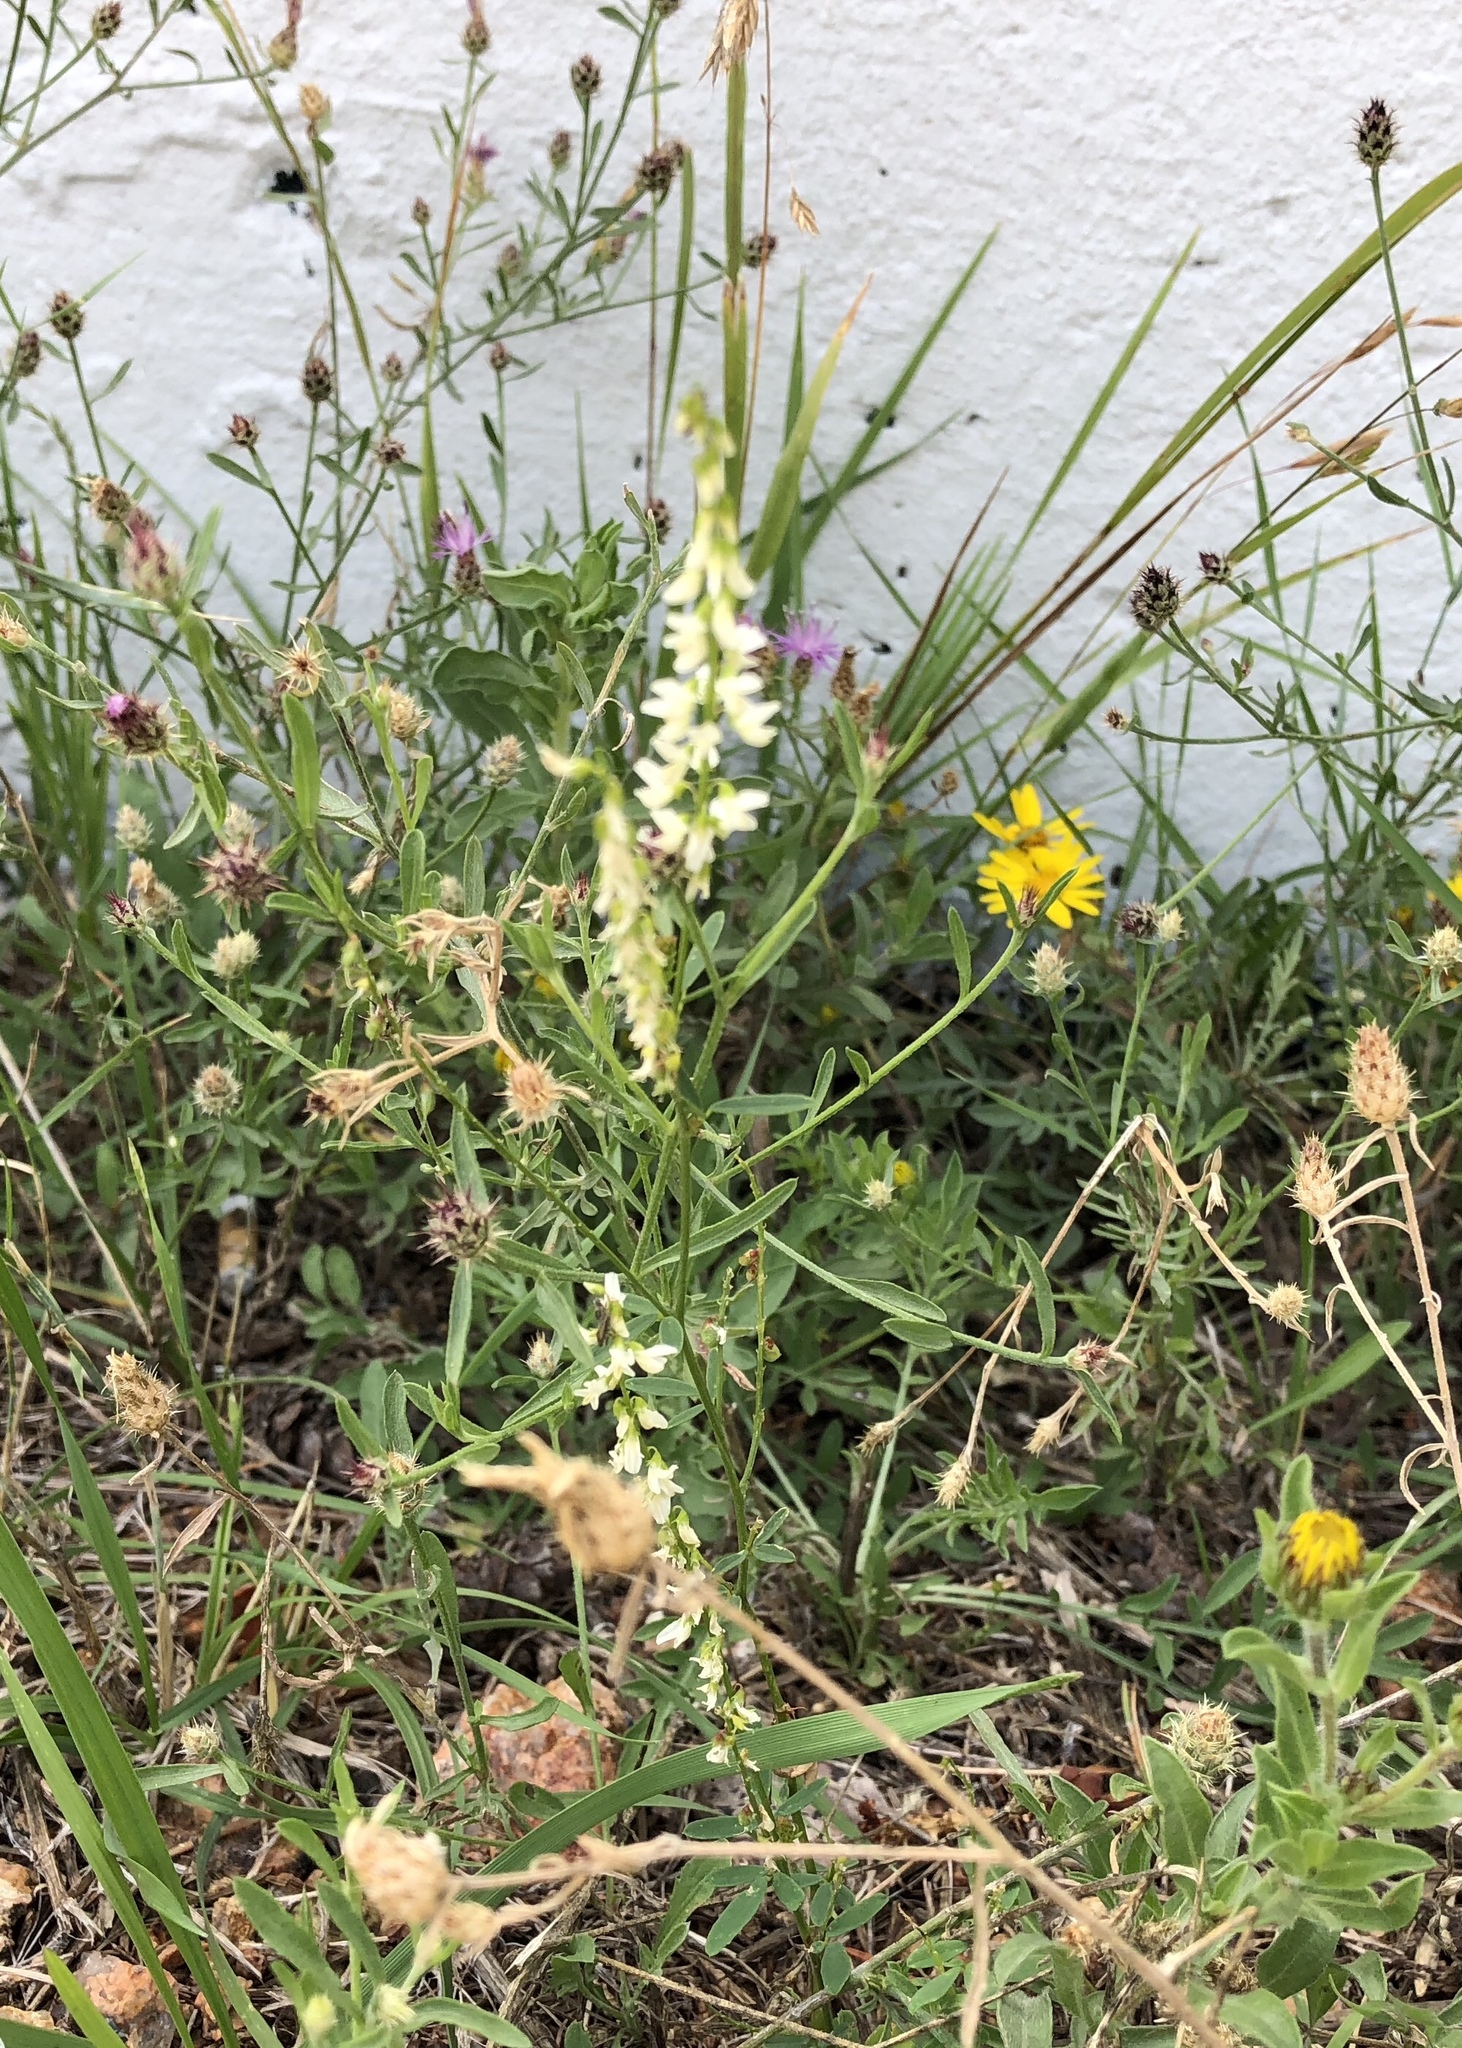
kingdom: Plantae
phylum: Tracheophyta
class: Magnoliopsida
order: Fabales
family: Fabaceae
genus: Melilotus
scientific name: Melilotus albus
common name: White melilot
